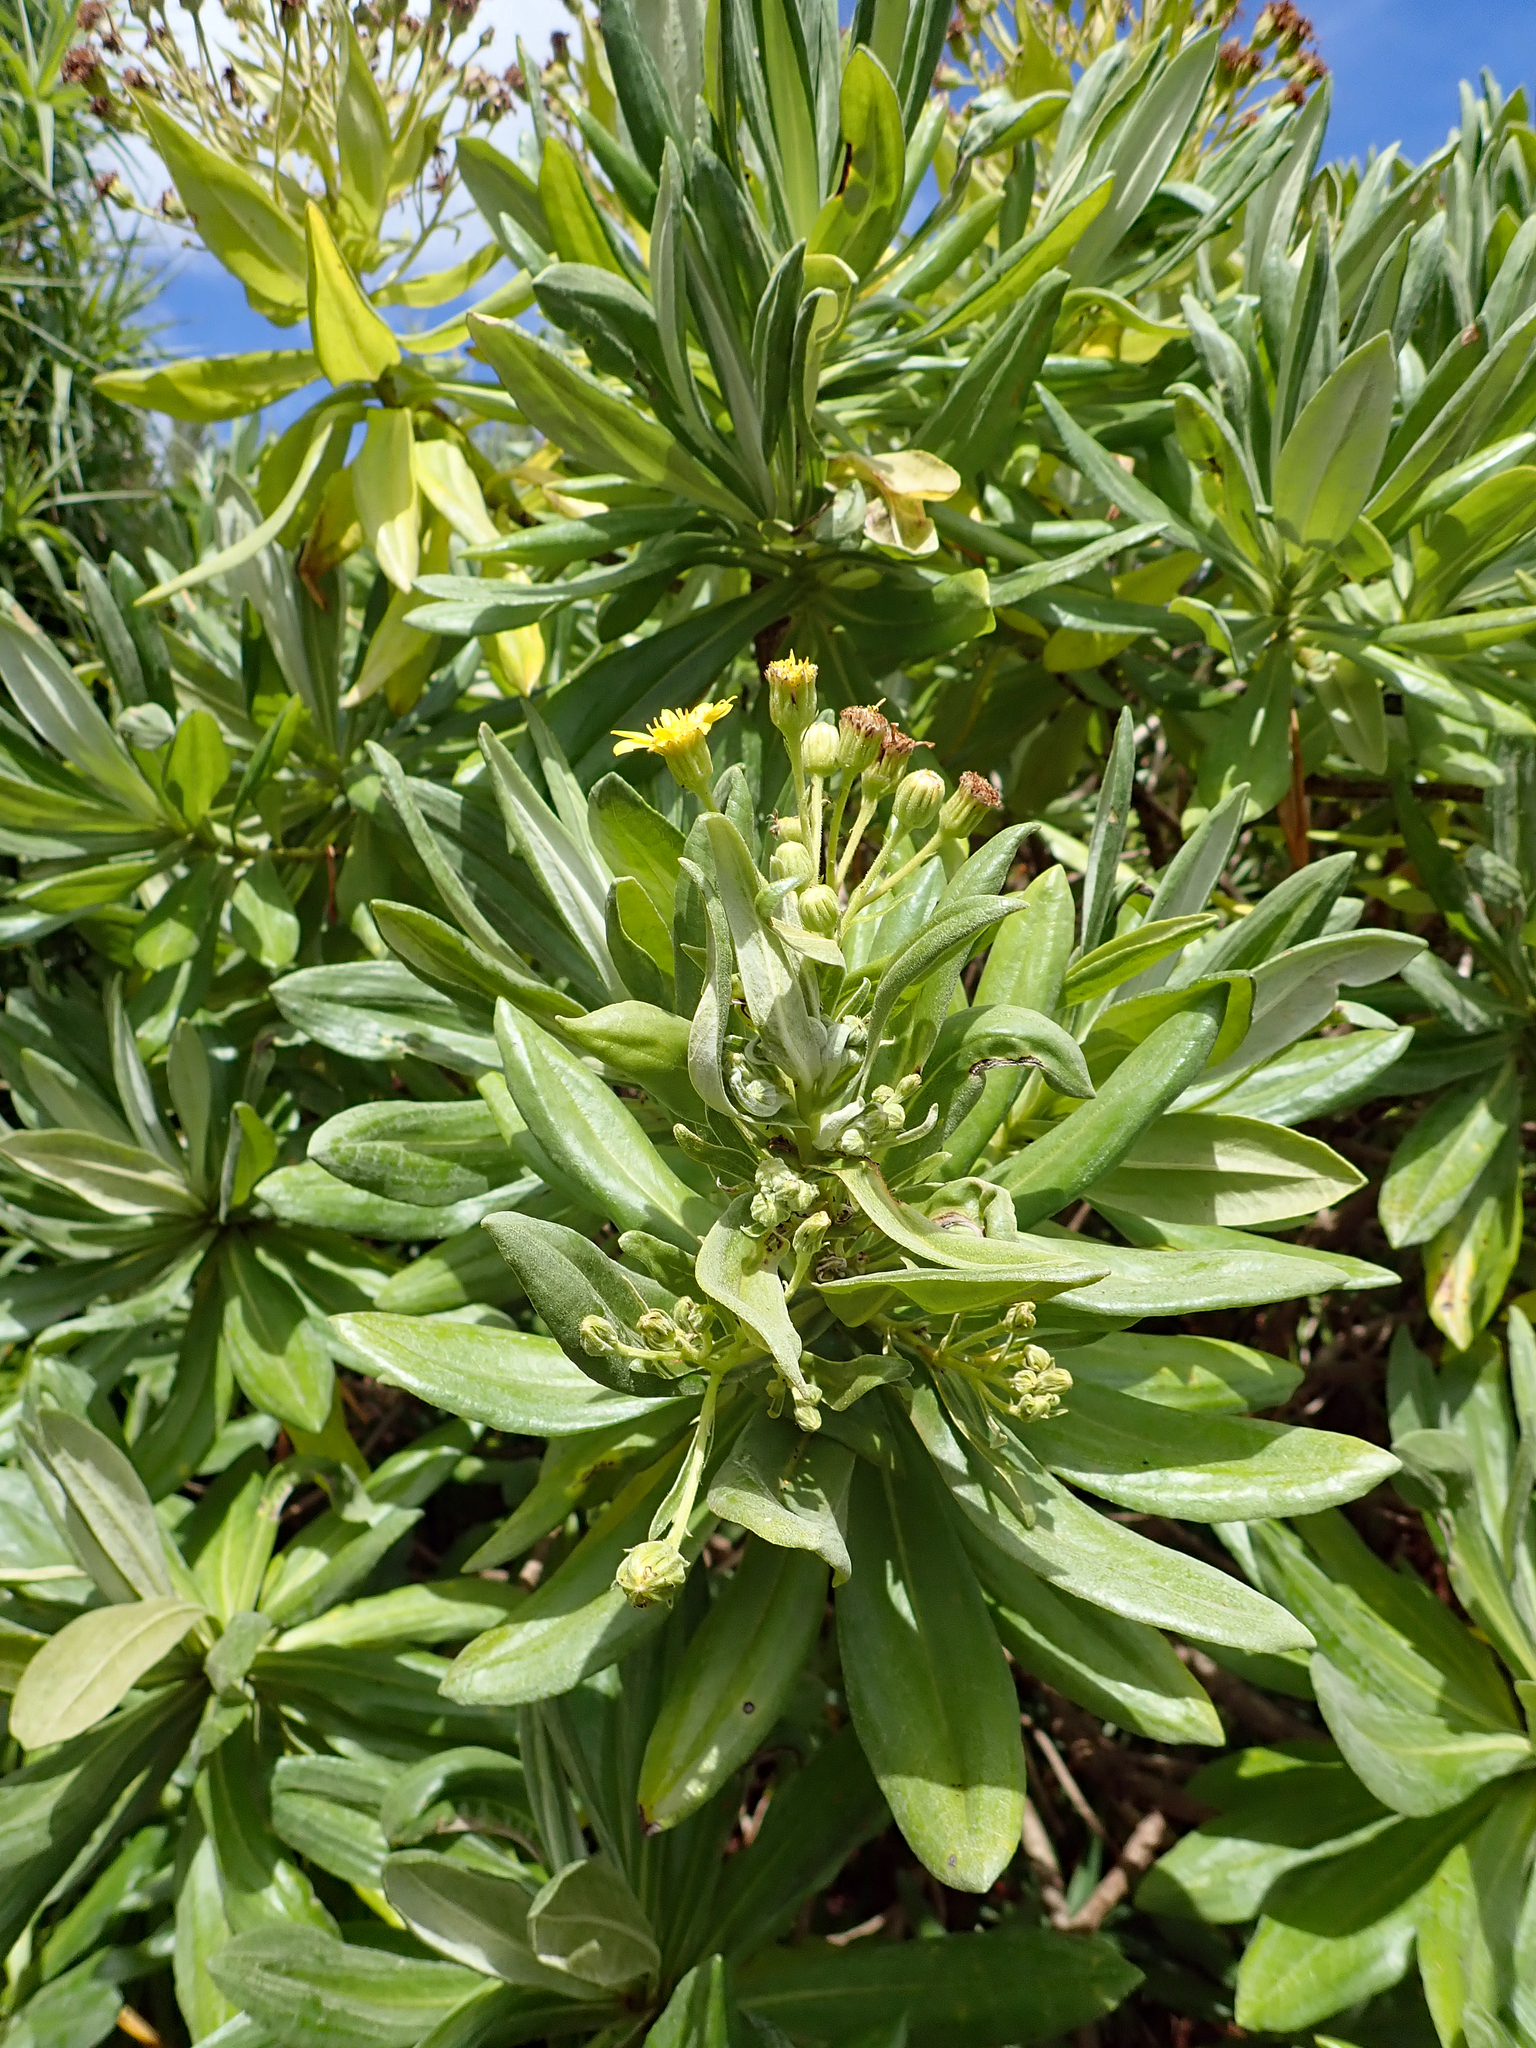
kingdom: Plantae
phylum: Tracheophyta
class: Magnoliopsida
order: Asterales
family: Asteraceae
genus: Brachyglottis
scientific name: Brachyglottis huntii
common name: Chatham island christmas tree
